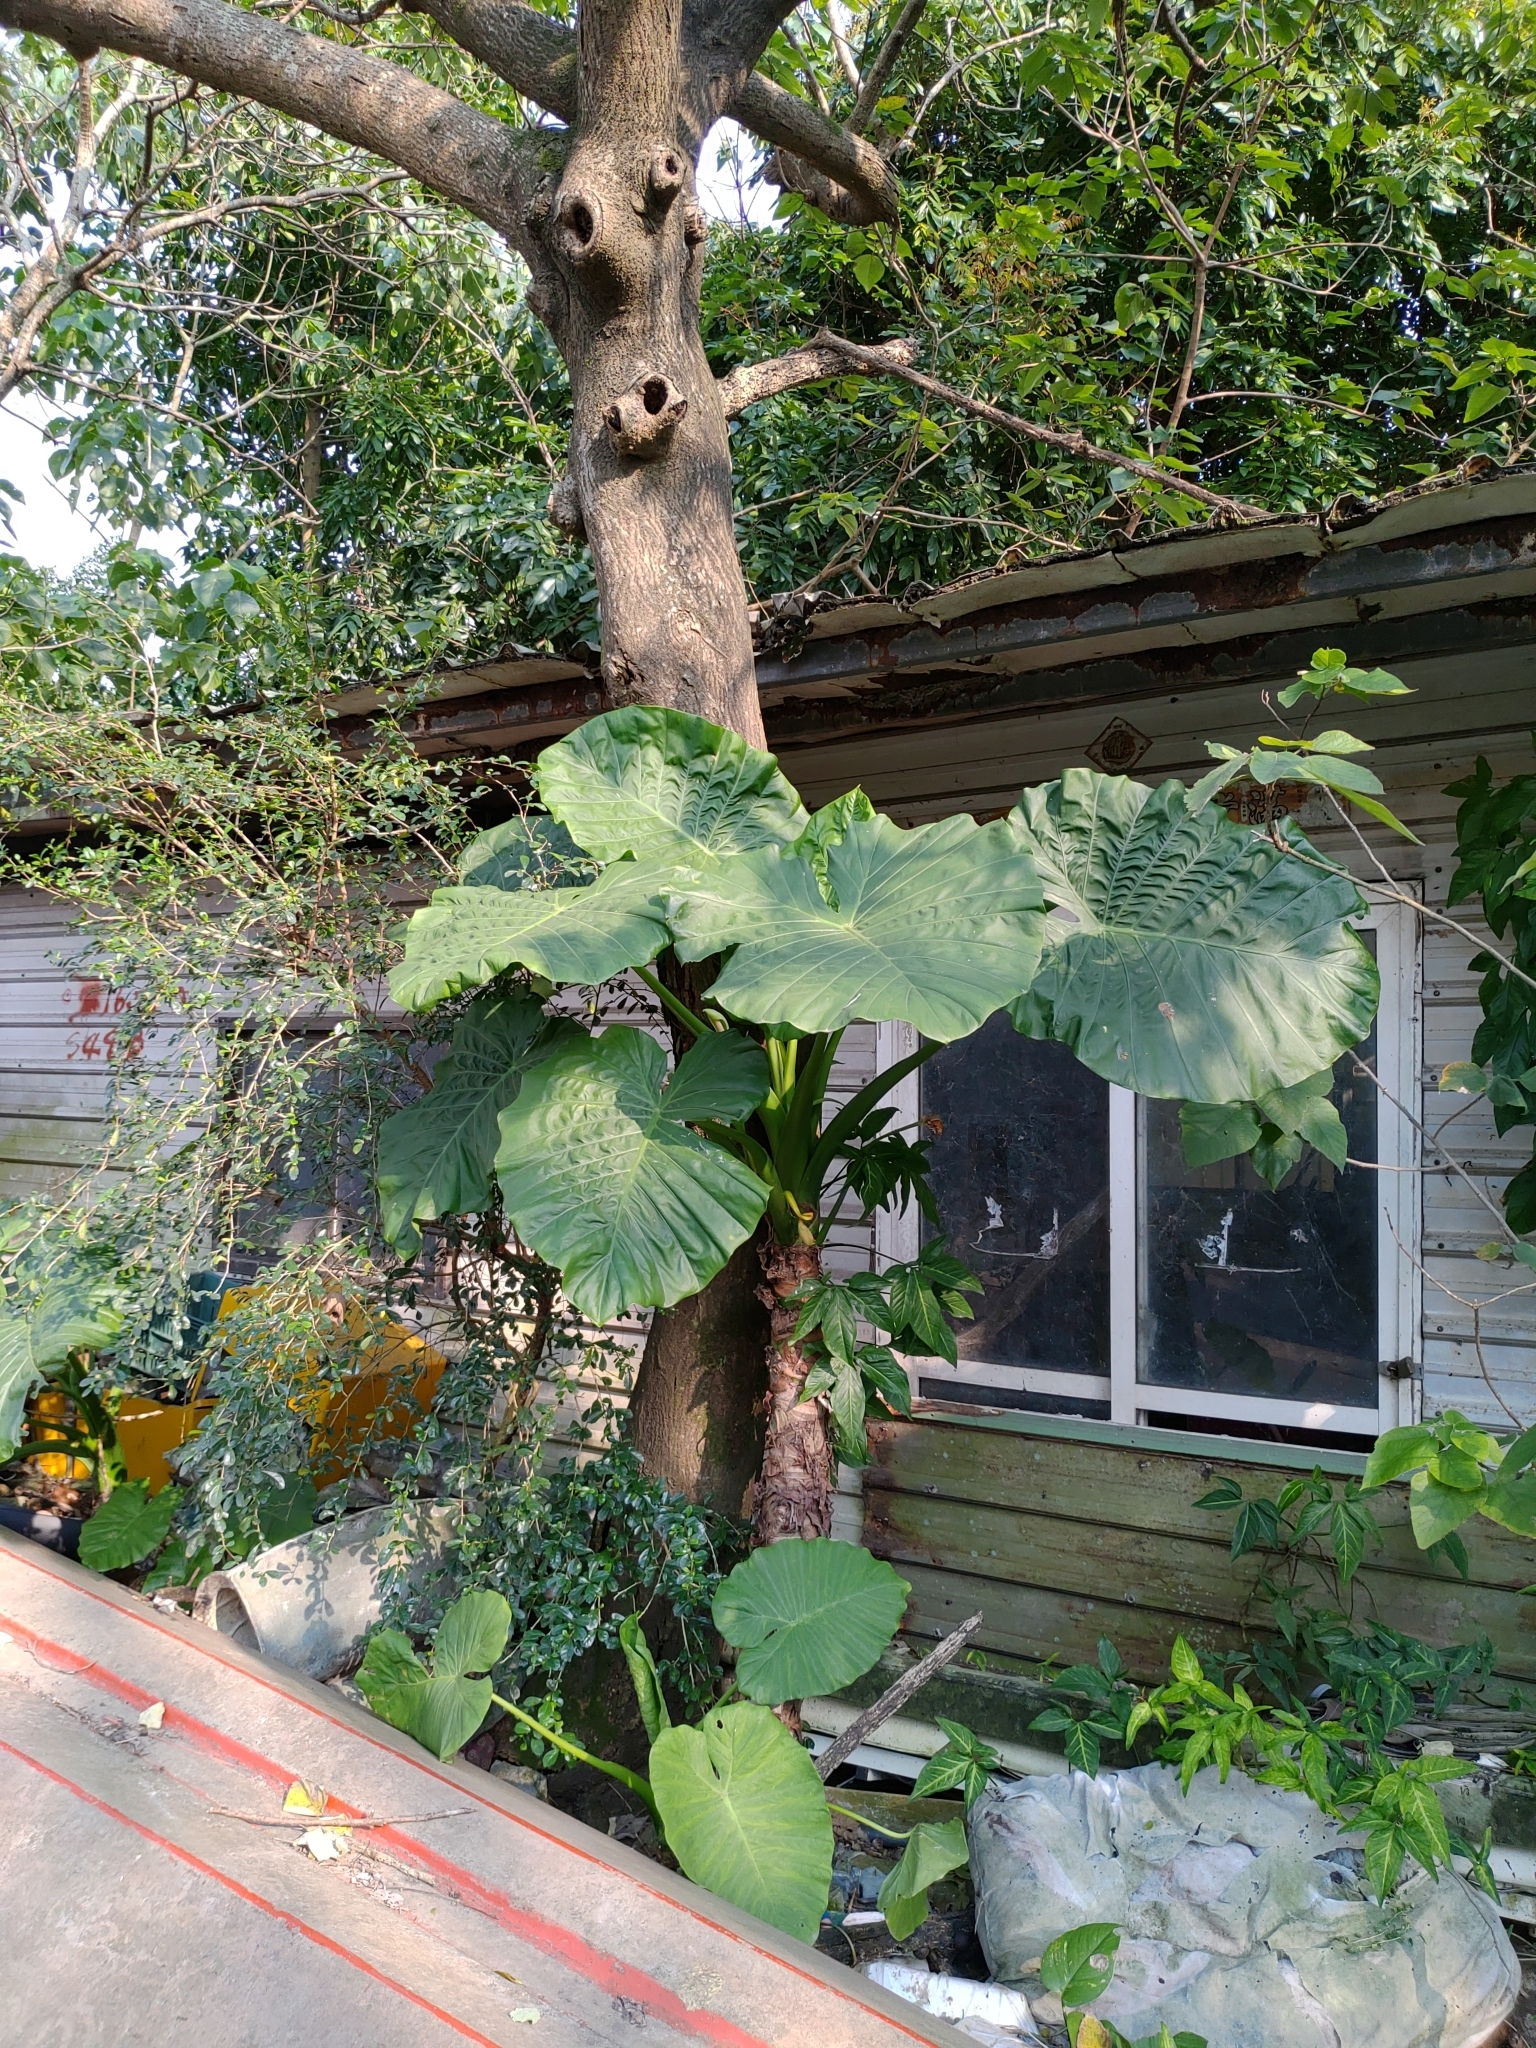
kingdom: Plantae
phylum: Tracheophyta
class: Liliopsida
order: Alismatales
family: Araceae
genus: Alocasia
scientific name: Alocasia odora
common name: Asian taro
